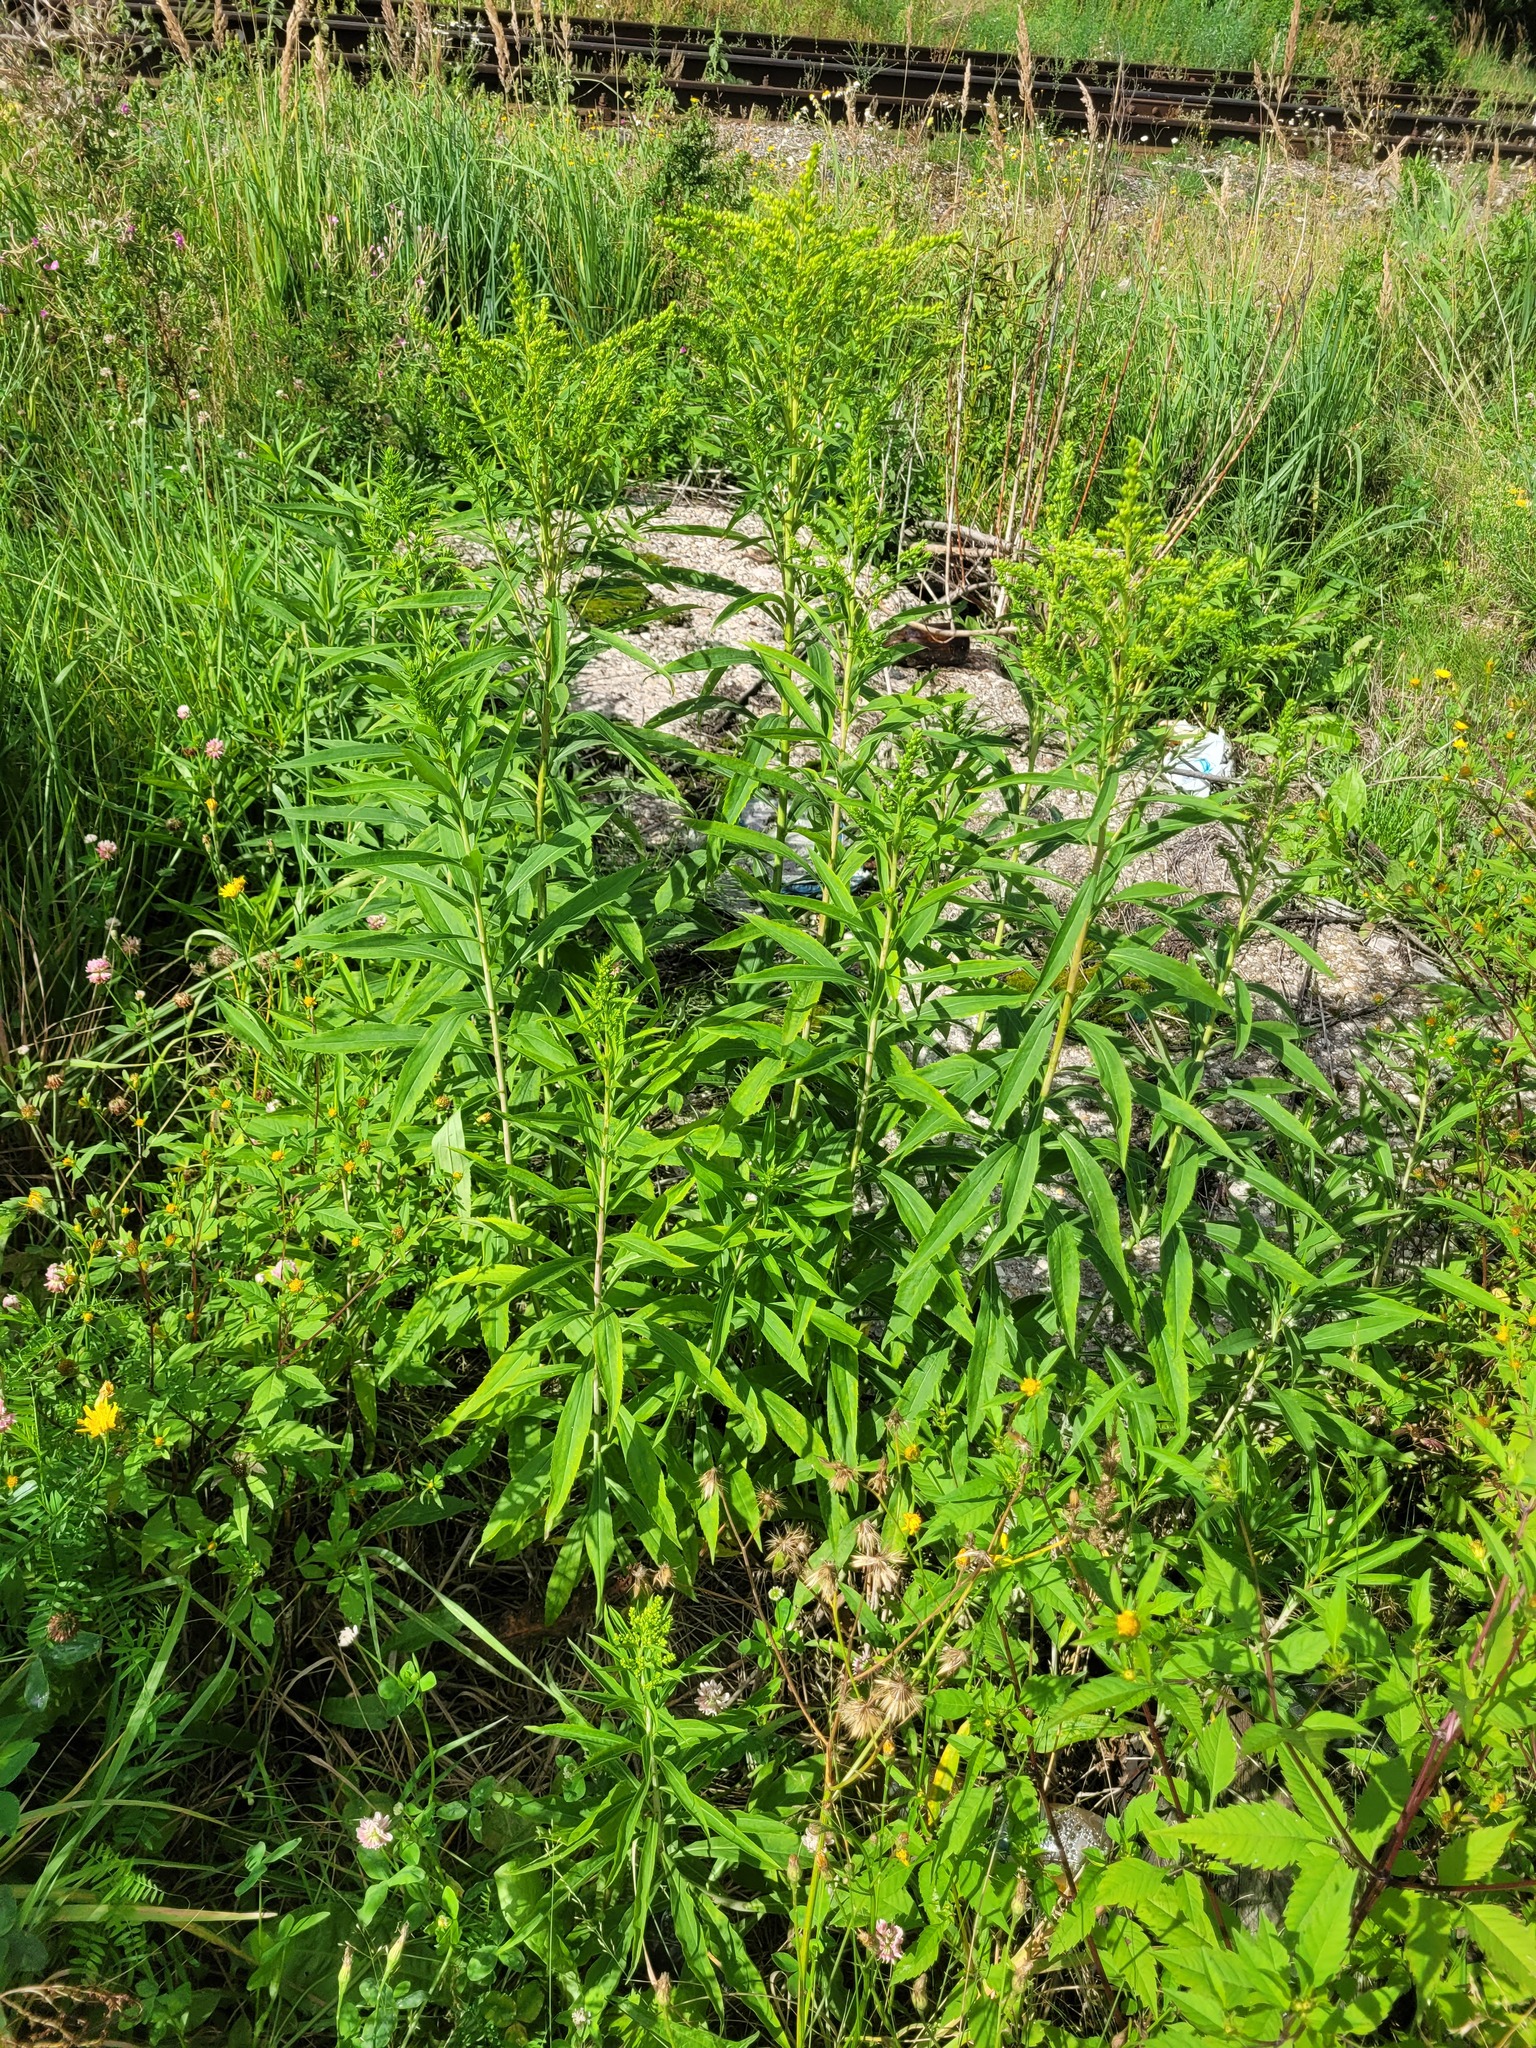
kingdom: Plantae
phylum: Tracheophyta
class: Magnoliopsida
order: Asterales
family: Asteraceae
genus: Solidago
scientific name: Solidago gigantea
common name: Giant goldenrod
